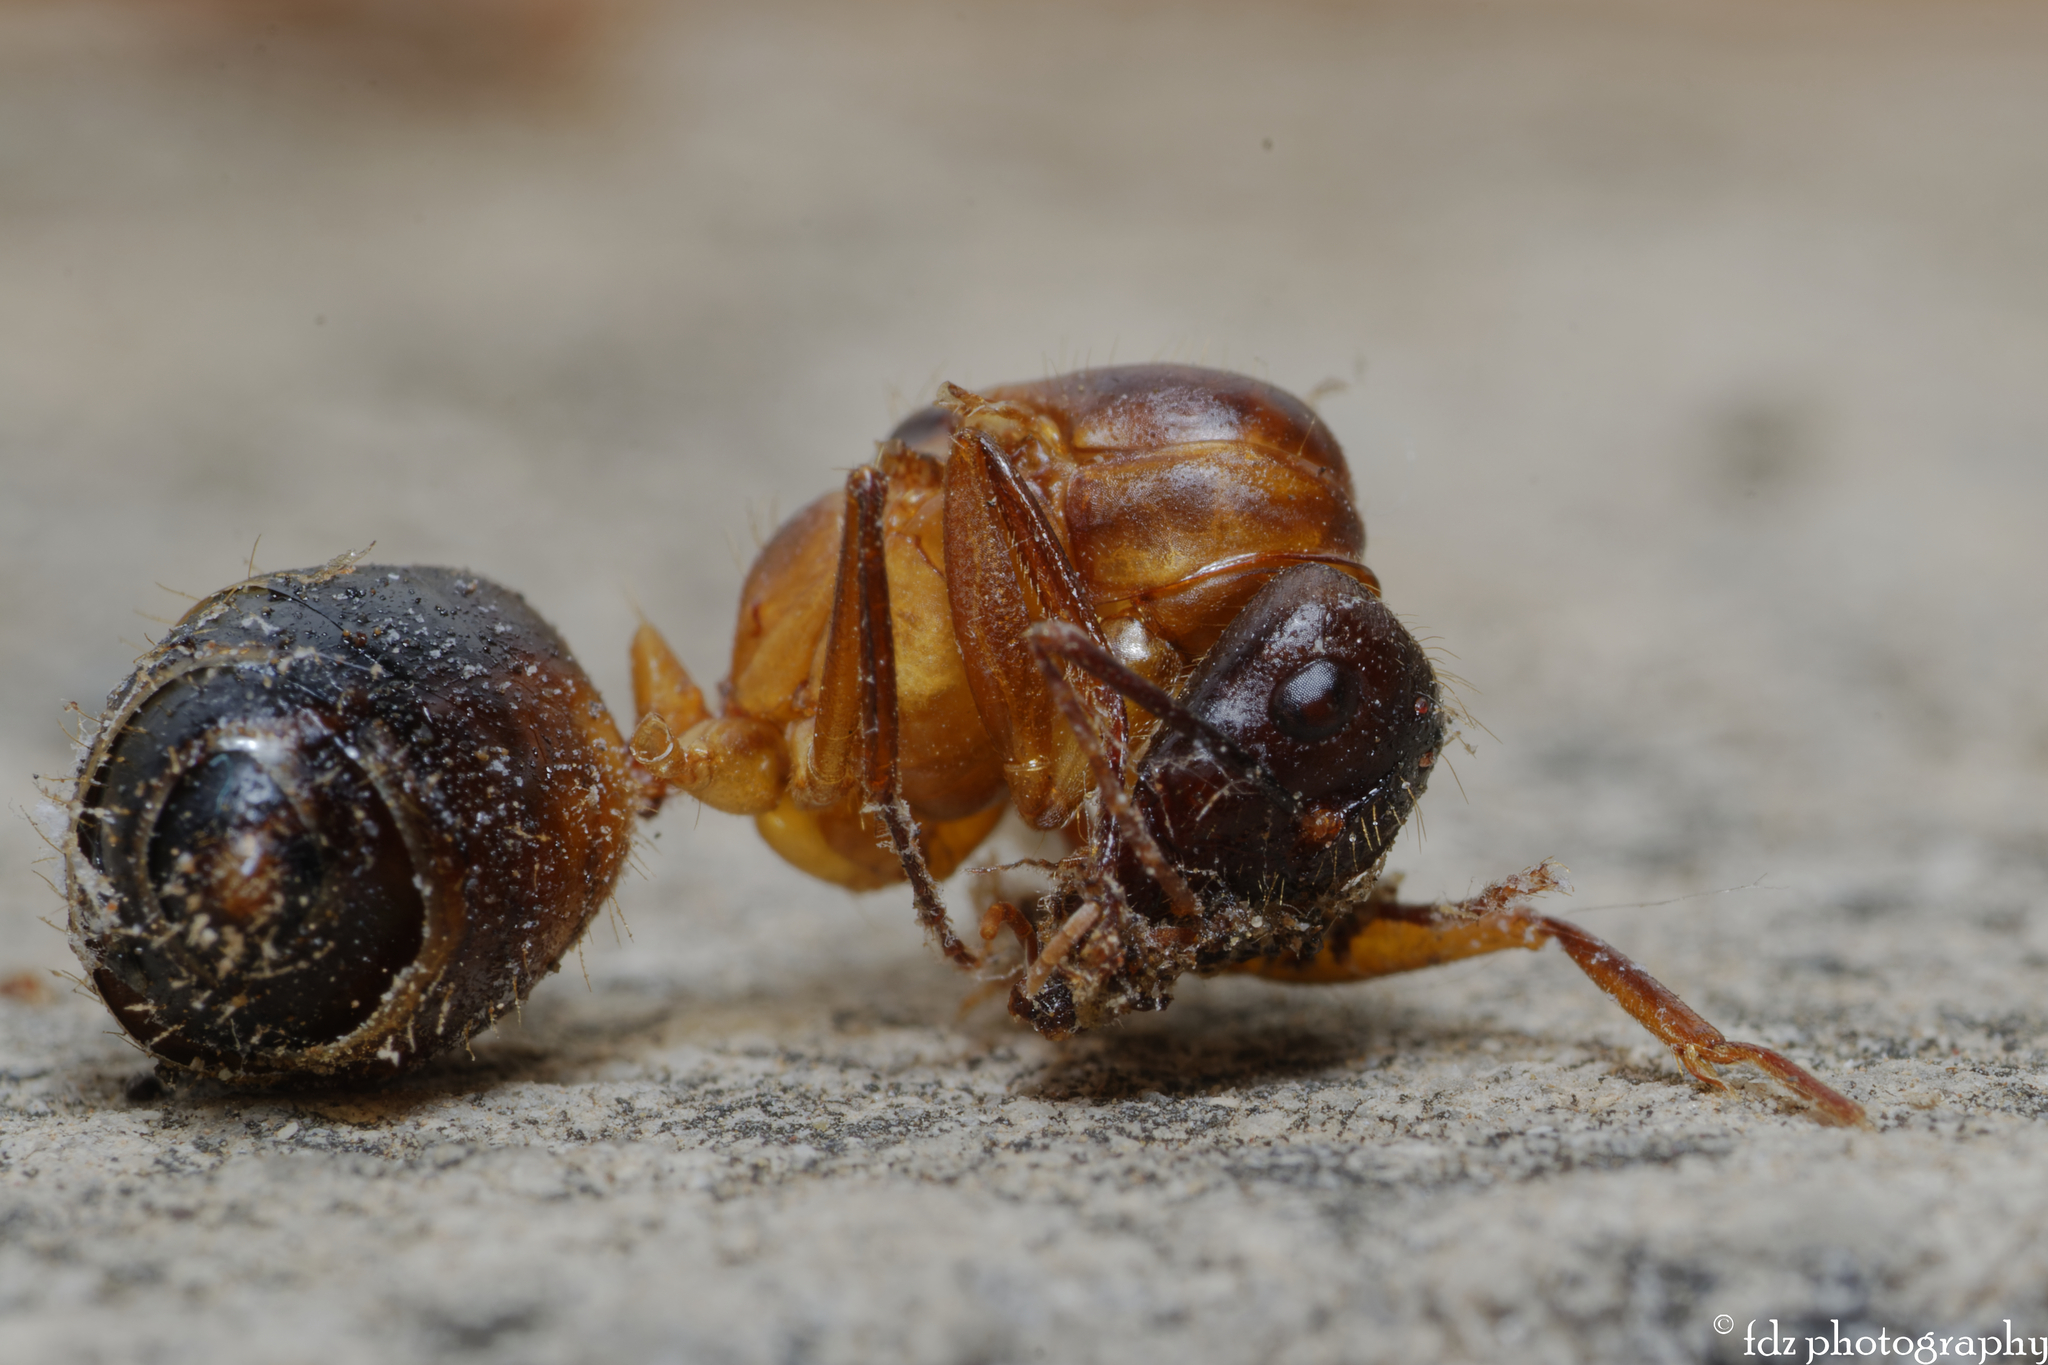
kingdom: Animalia
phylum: Arthropoda
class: Insecta
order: Hymenoptera
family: Formicidae
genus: Camponotus
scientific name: Camponotus barbaricus
